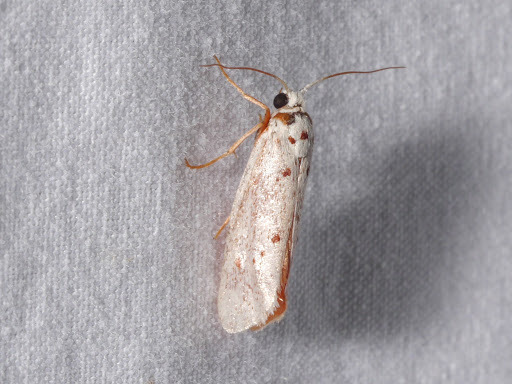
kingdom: Animalia
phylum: Arthropoda
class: Insecta
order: Lepidoptera
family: Lacturidae
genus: Lactura
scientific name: Lactura
